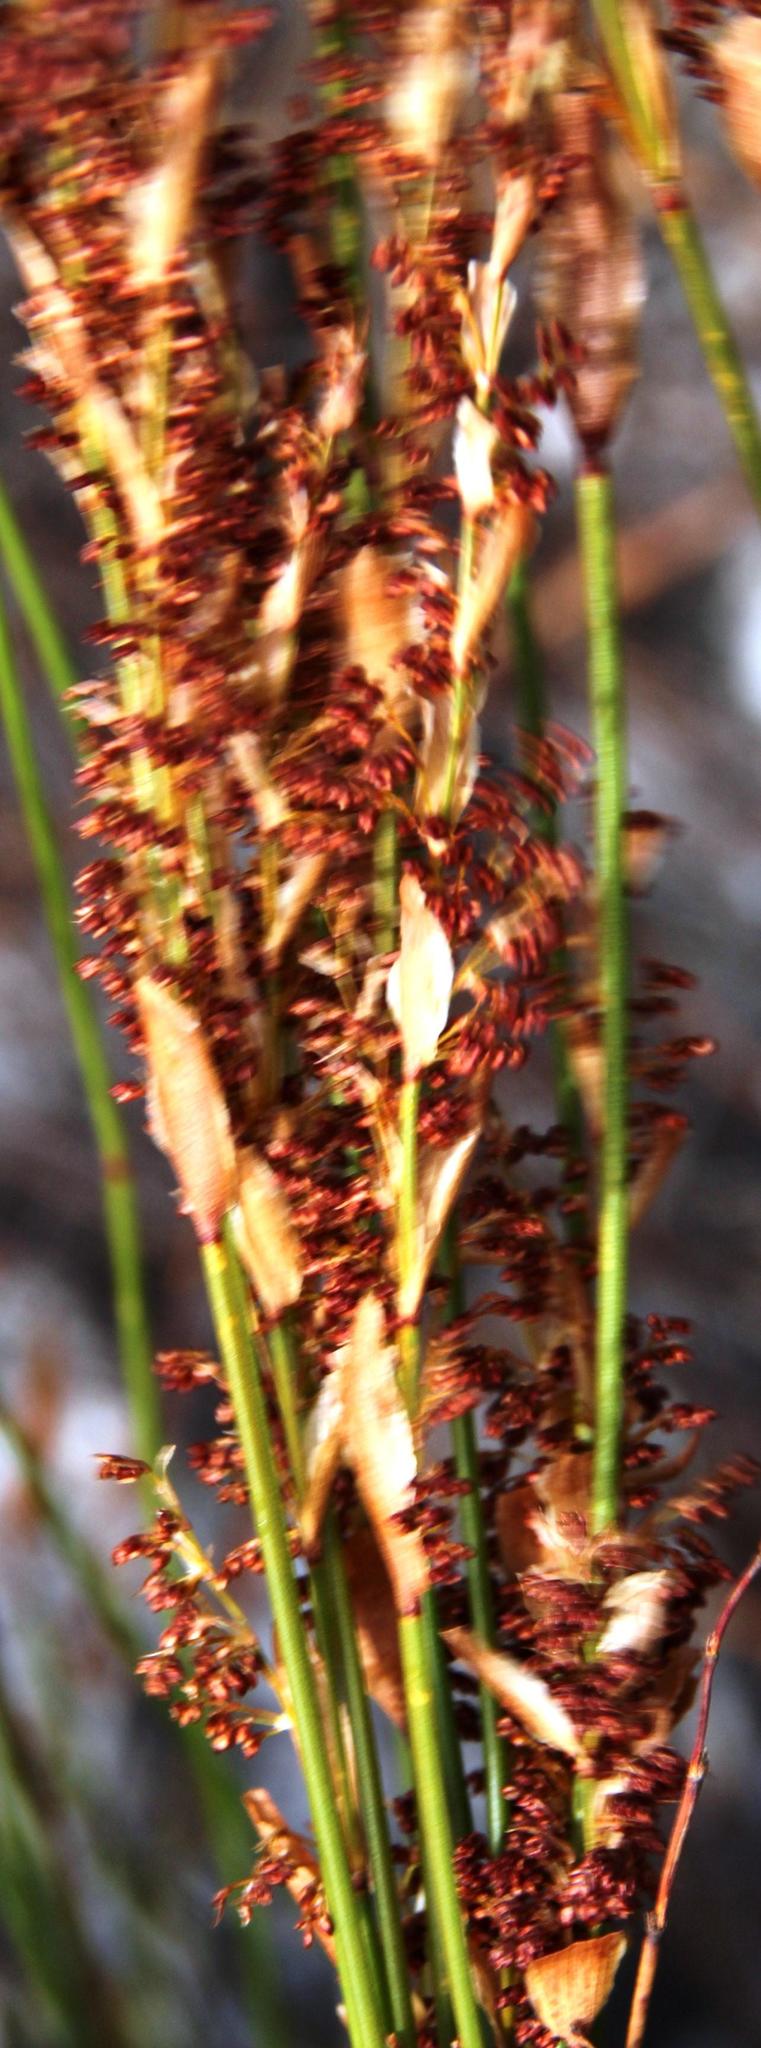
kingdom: Plantae
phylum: Tracheophyta
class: Liliopsida
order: Poales
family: Restionaceae
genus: Elegia
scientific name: Elegia filacea
